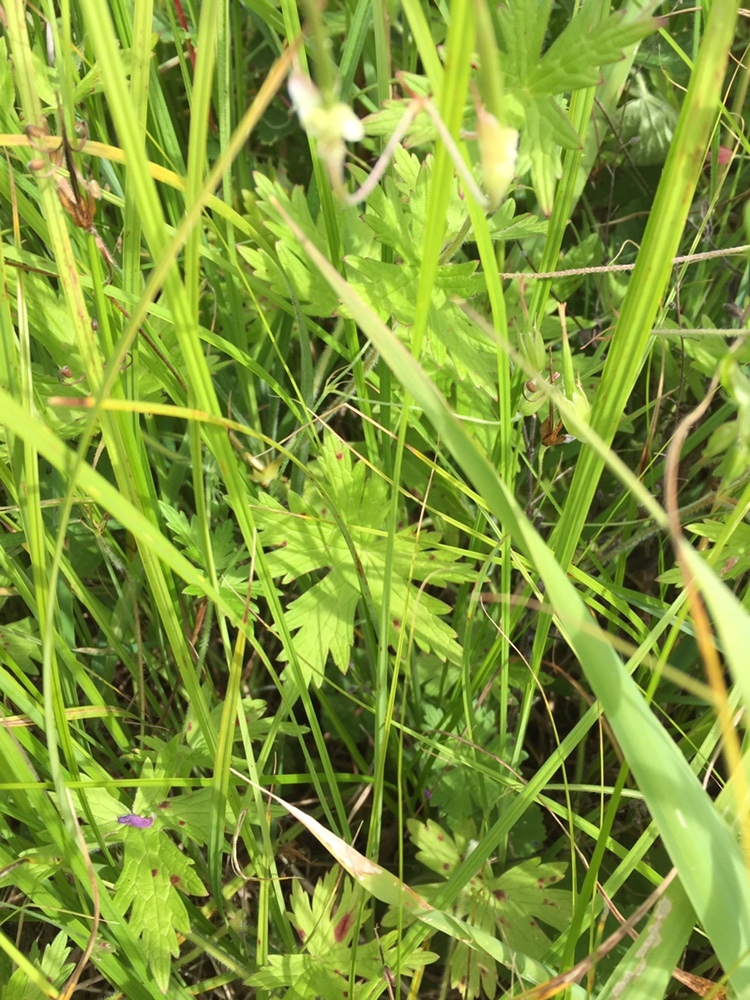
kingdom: Plantae
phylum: Tracheophyta
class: Magnoliopsida
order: Geraniales
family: Geraniaceae
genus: Geranium
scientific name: Geranium palustre
